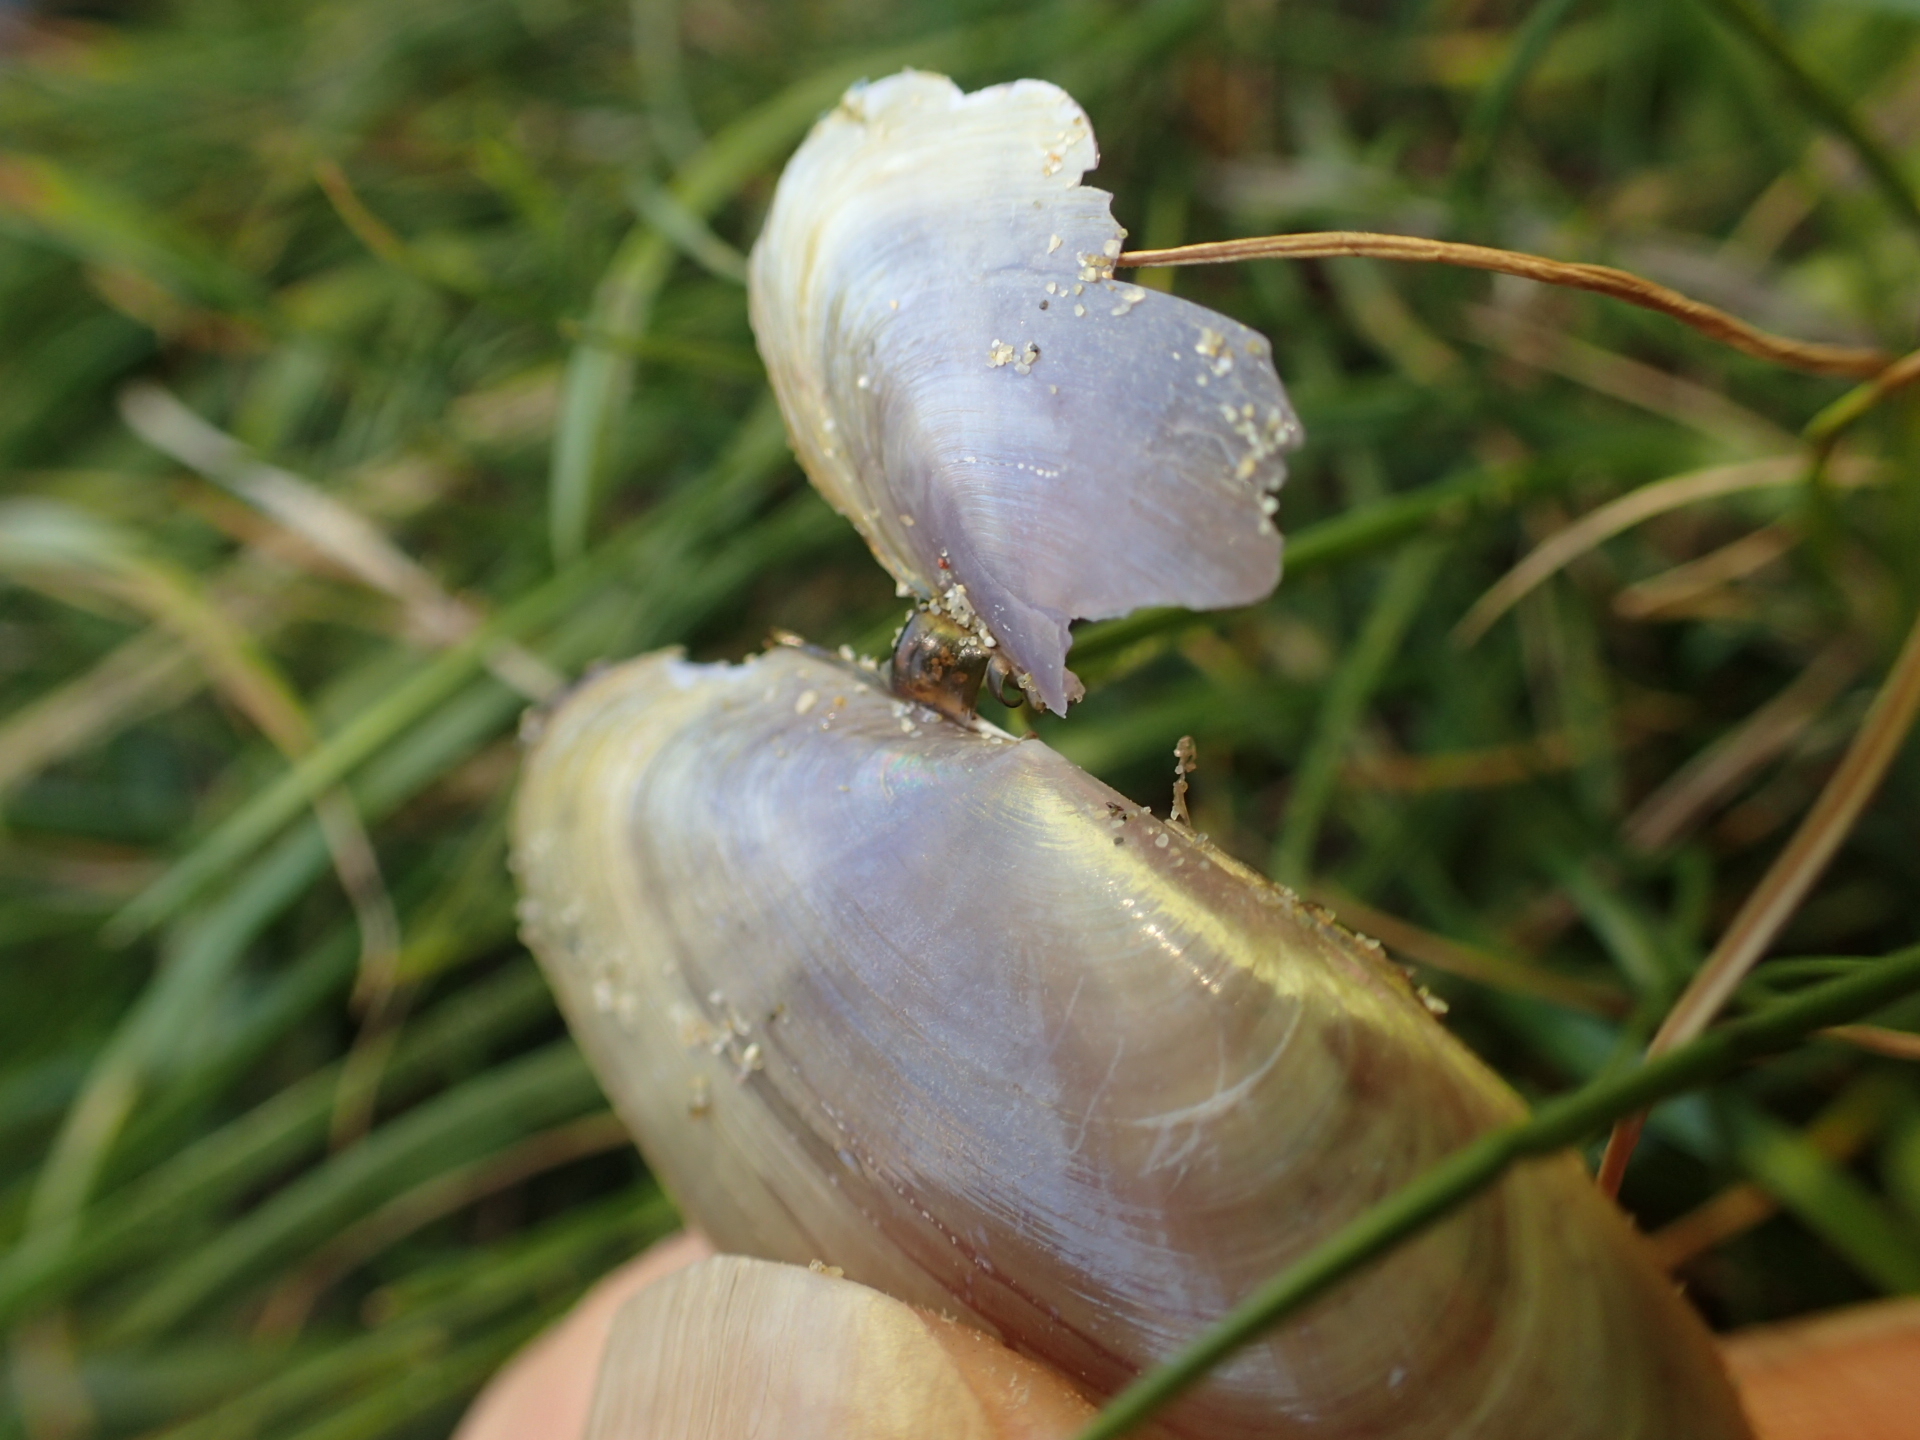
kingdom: Animalia
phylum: Mollusca
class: Bivalvia
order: Cardiida
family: Psammobiidae
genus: Hiatula
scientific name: Hiatula nitida
